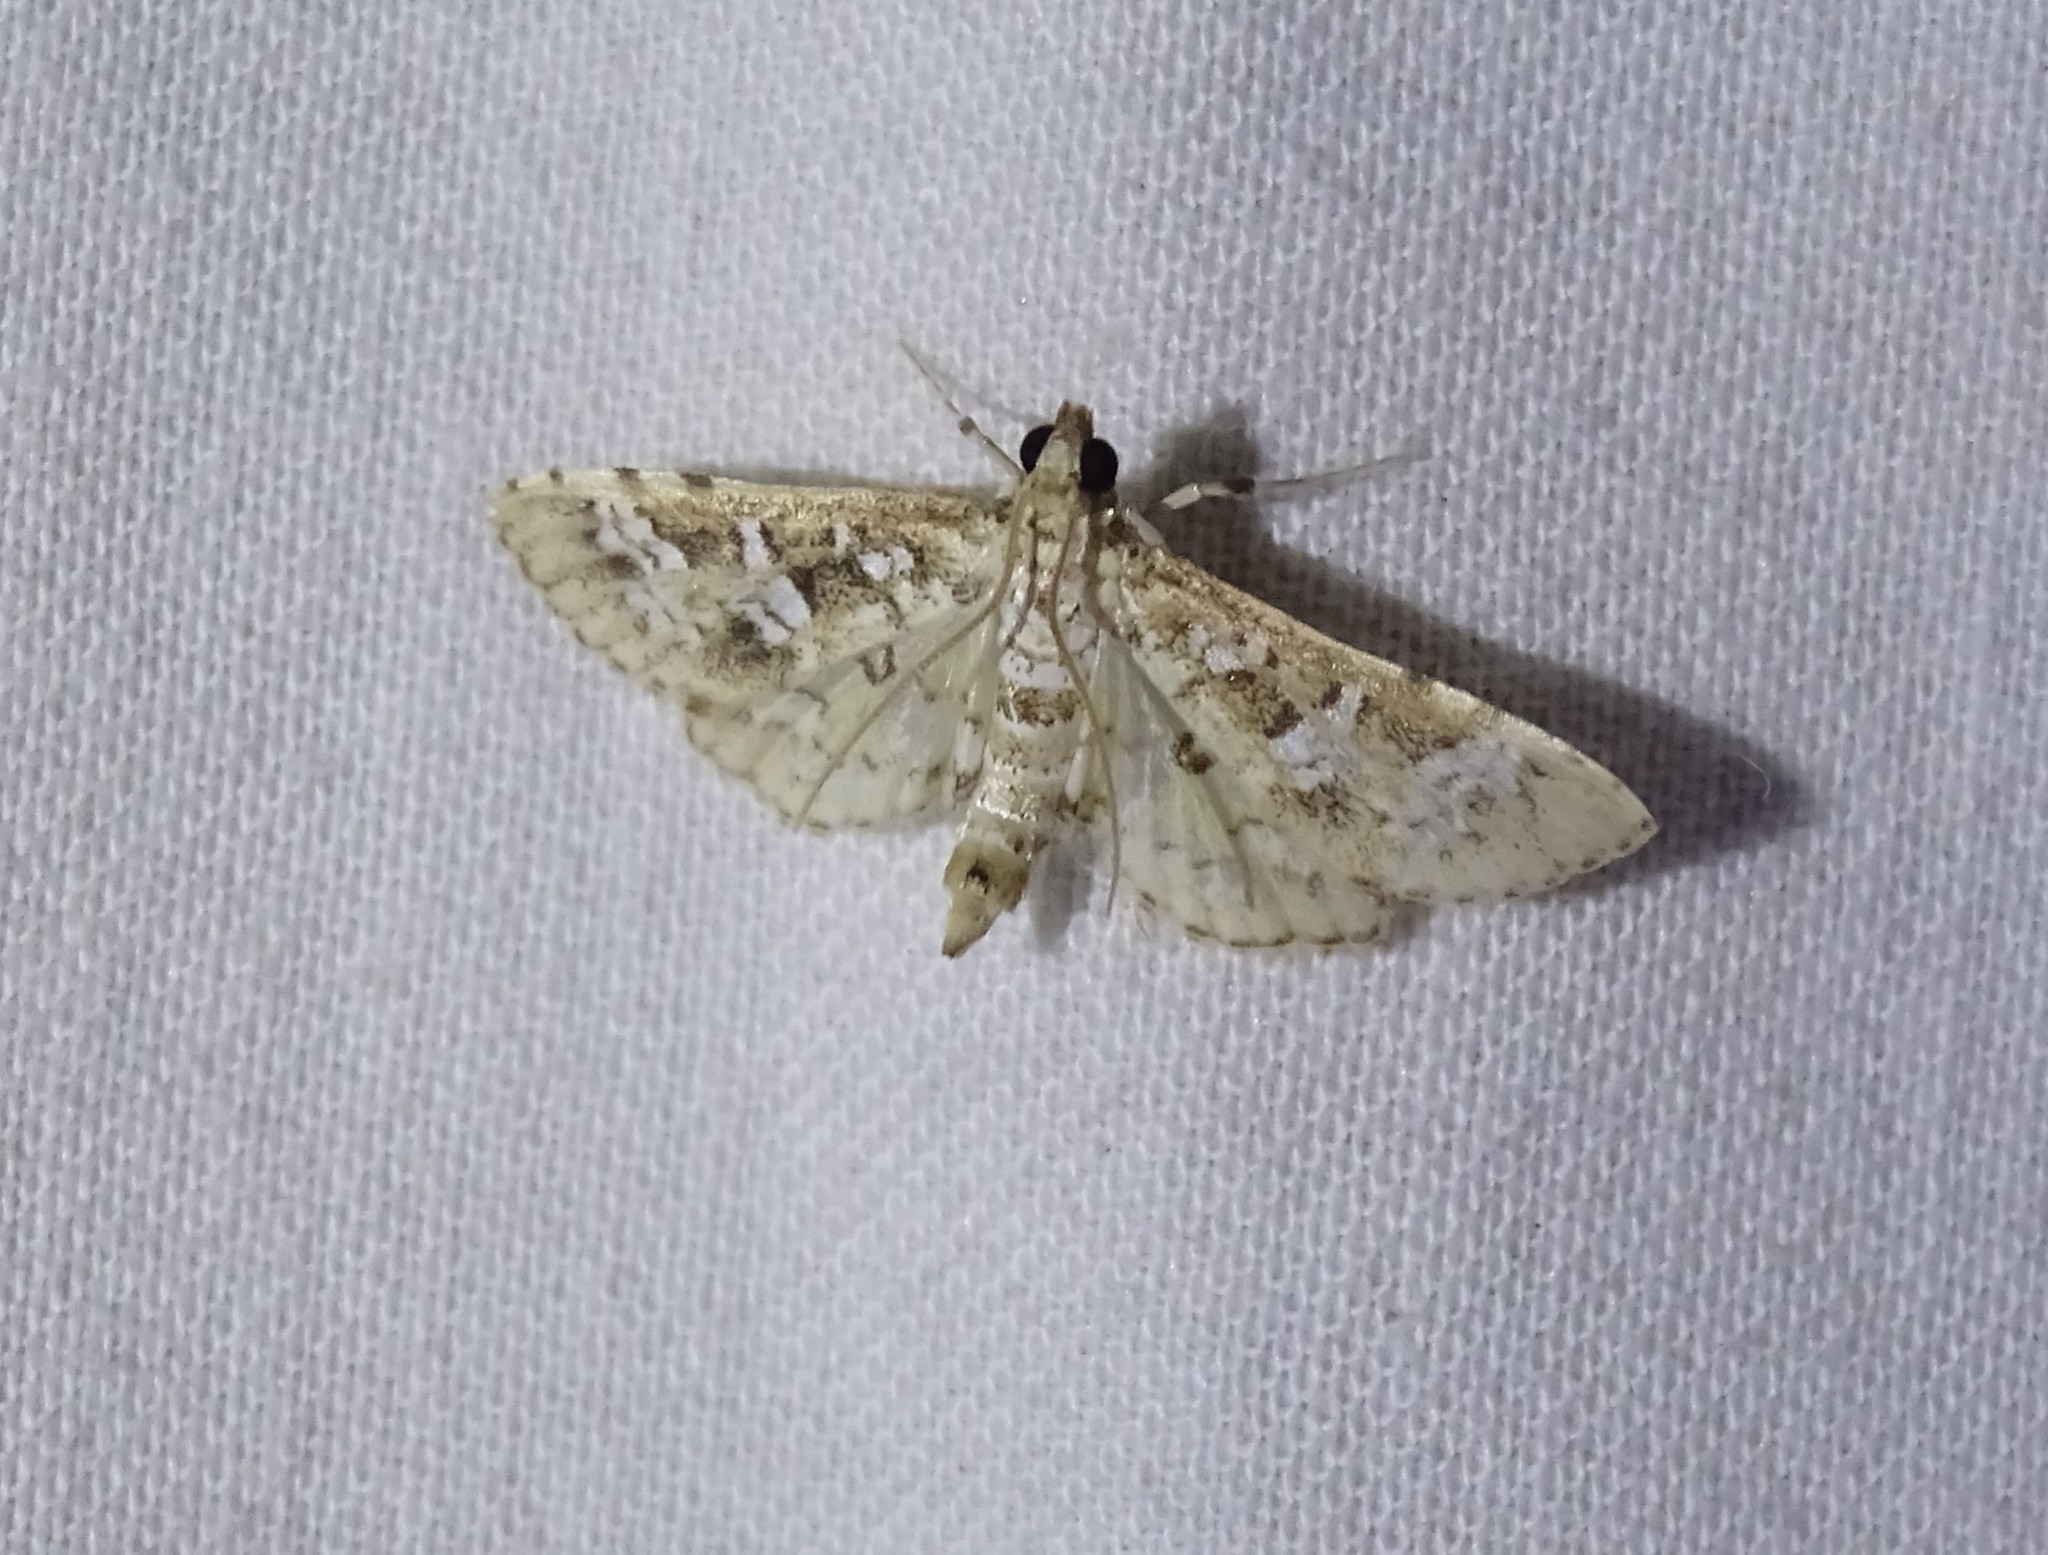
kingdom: Animalia
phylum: Arthropoda
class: Insecta
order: Lepidoptera
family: Crambidae
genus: Samea
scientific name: Samea multiplicalis
